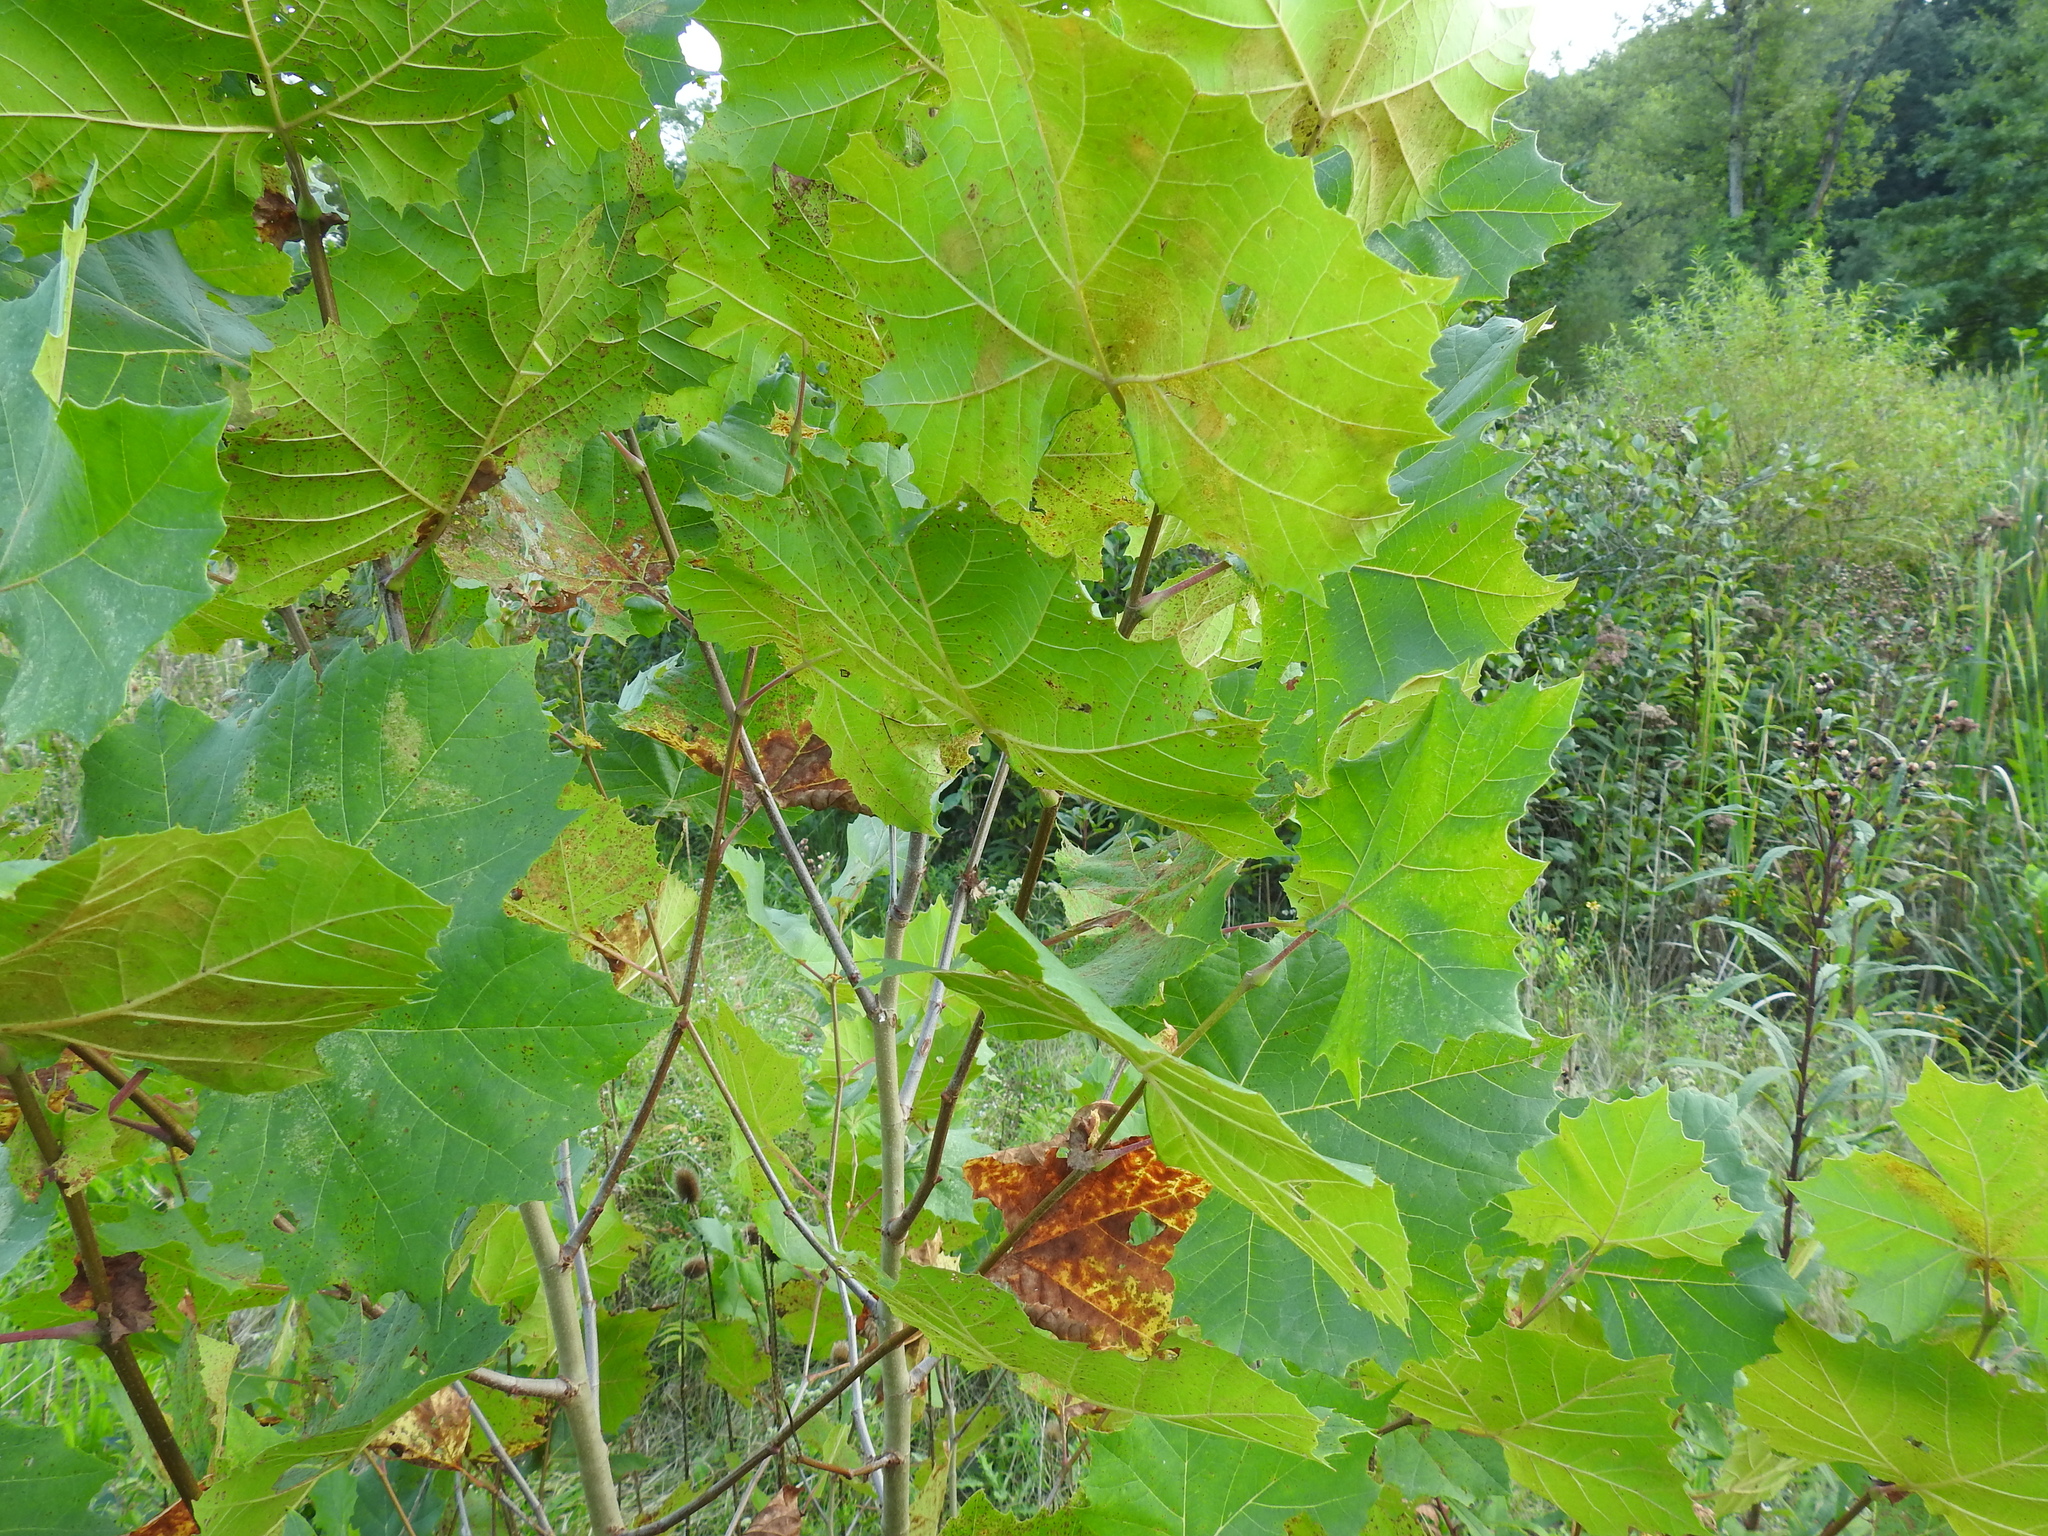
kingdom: Plantae
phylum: Tracheophyta
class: Magnoliopsida
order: Proteales
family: Platanaceae
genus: Platanus
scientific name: Platanus occidentalis
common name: American sycamore
